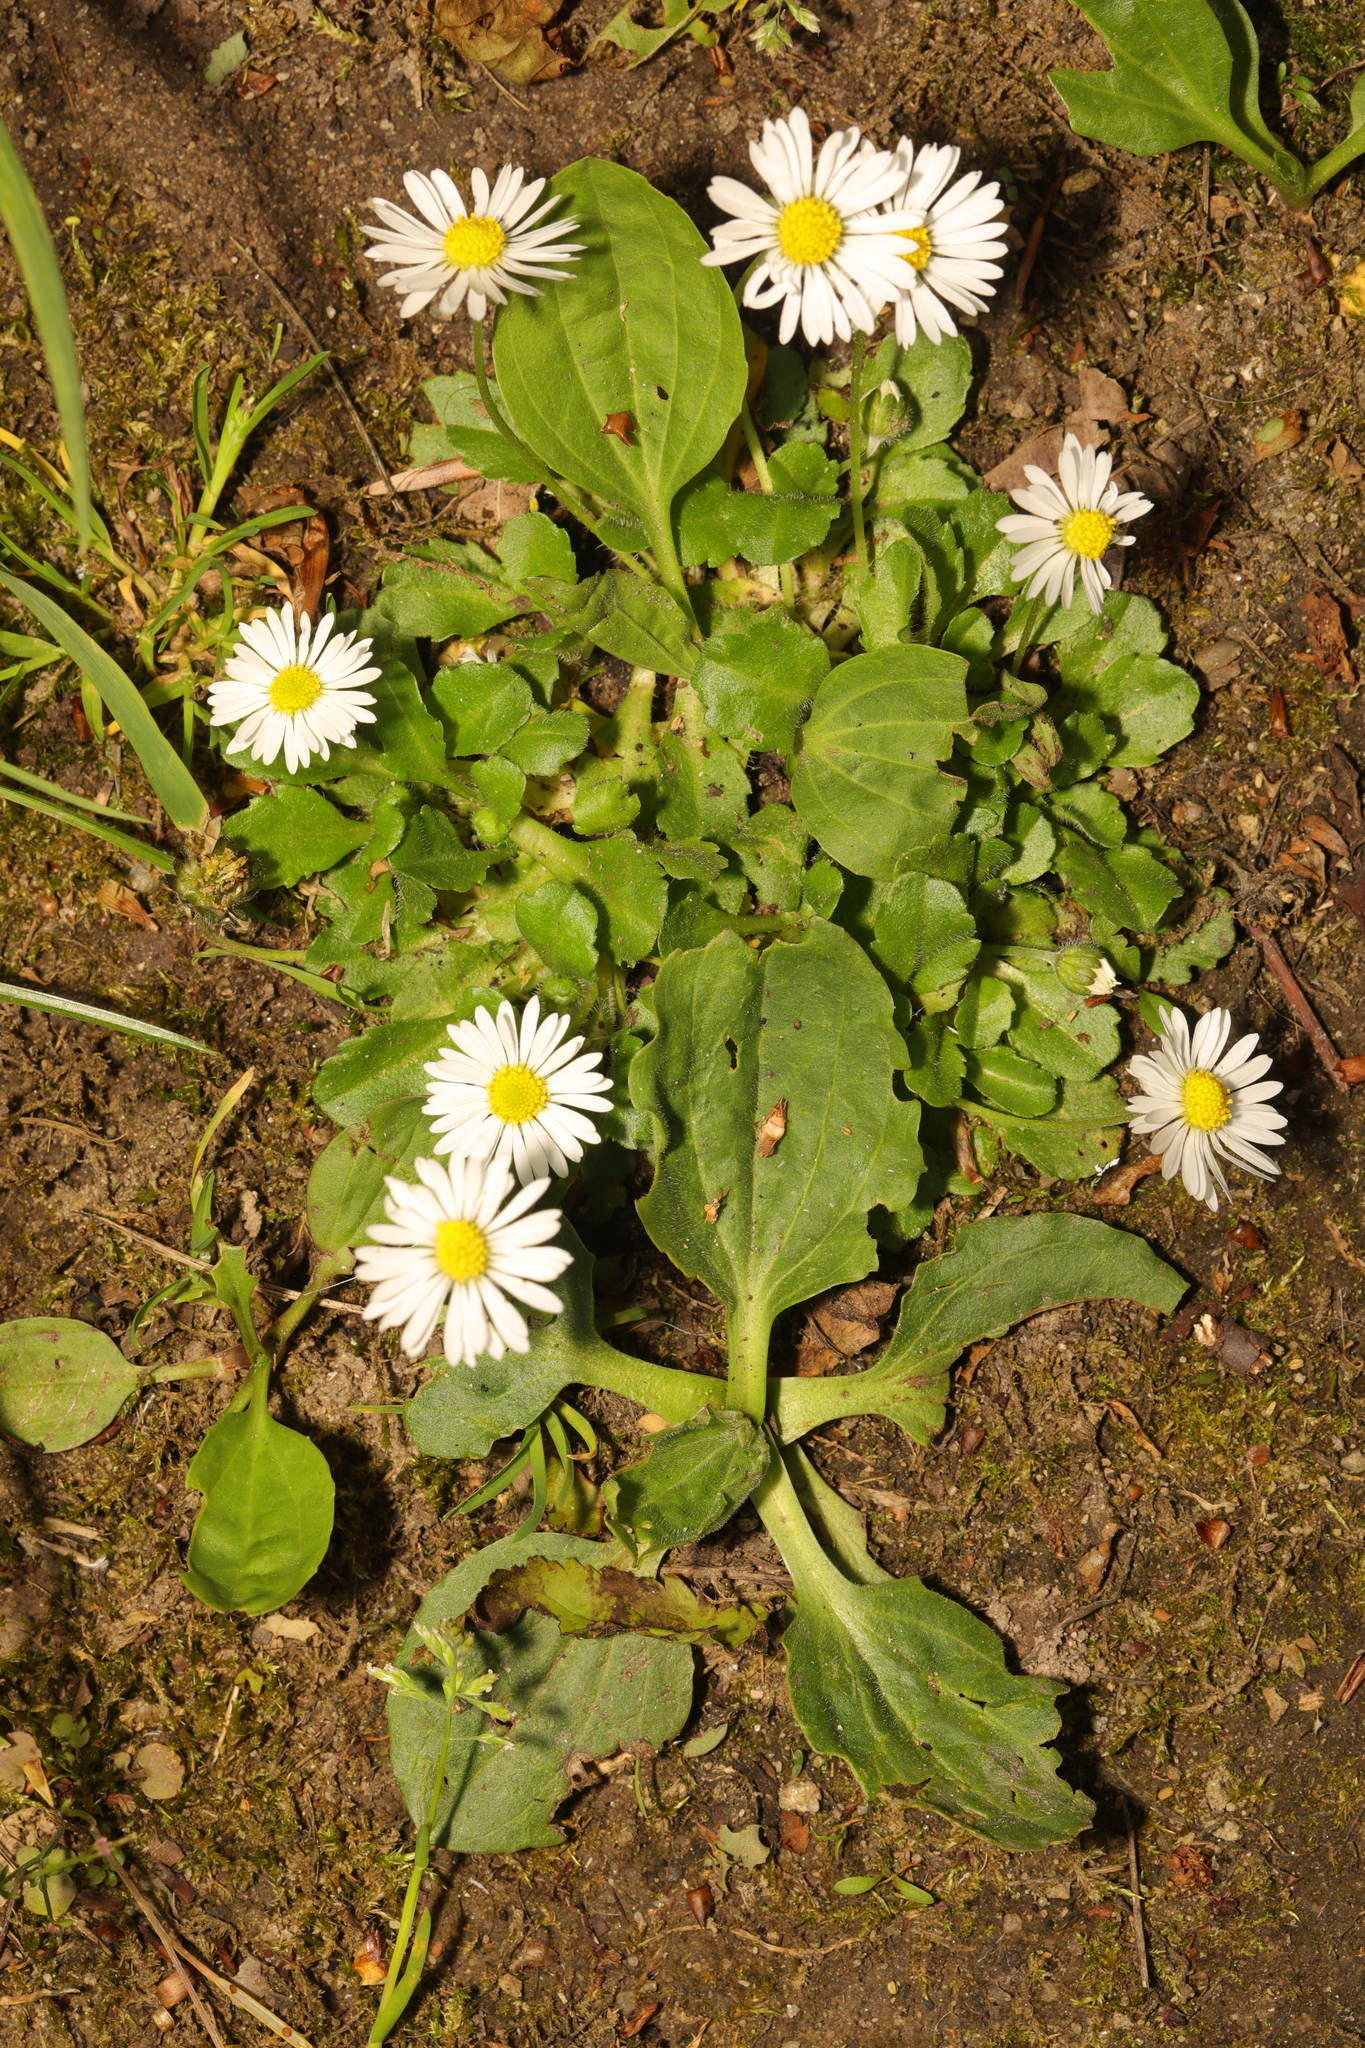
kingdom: Plantae
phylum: Tracheophyta
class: Magnoliopsida
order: Asterales
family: Asteraceae
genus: Bellis
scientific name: Bellis perennis
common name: Lawndaisy
